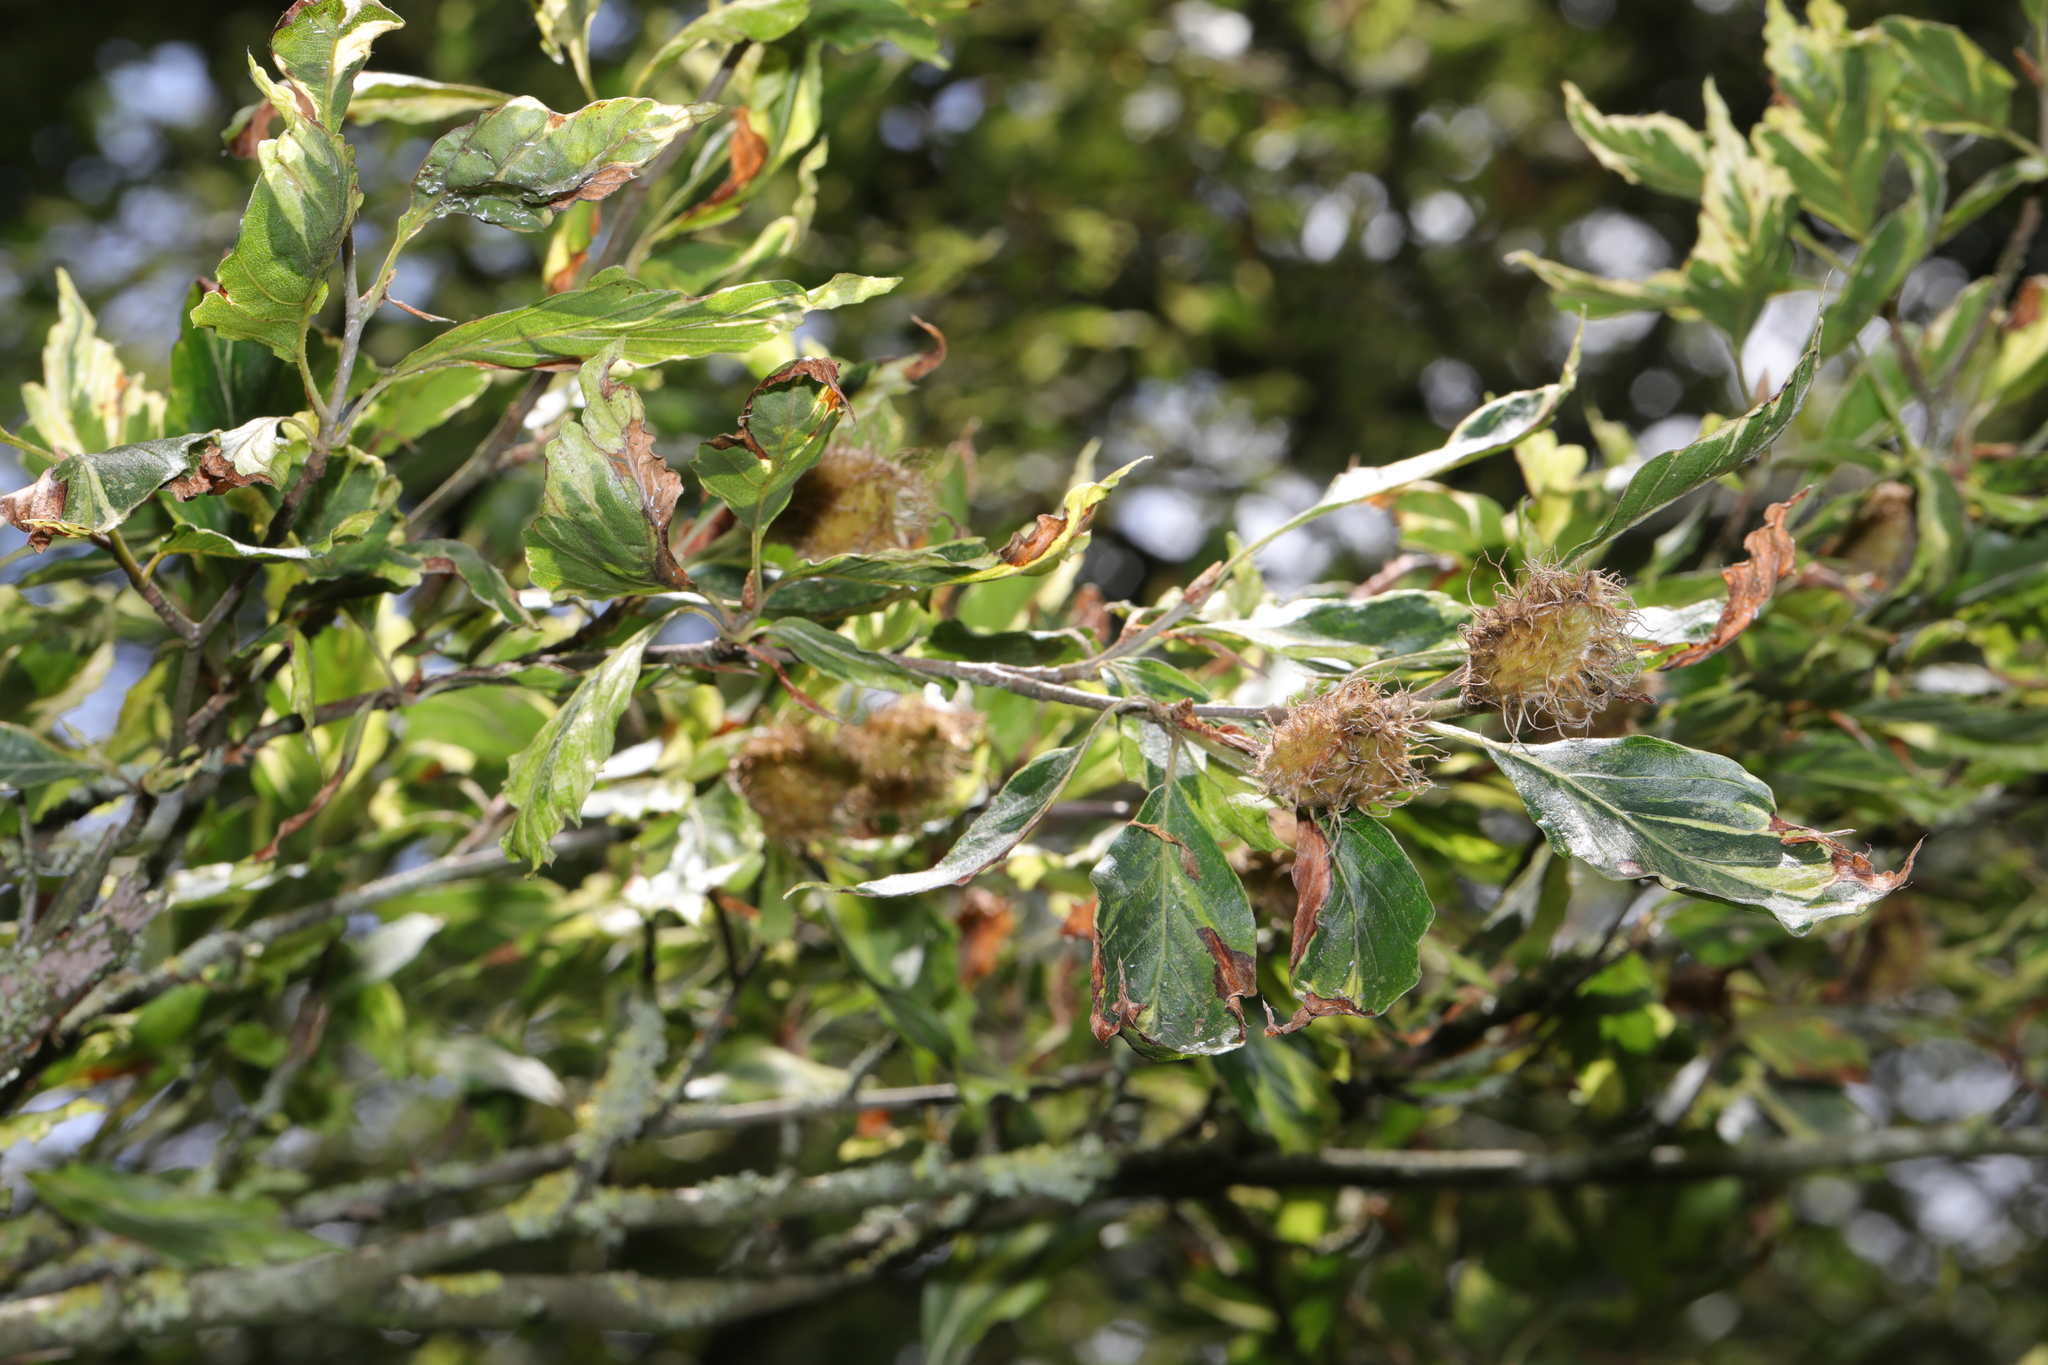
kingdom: Plantae
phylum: Tracheophyta
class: Magnoliopsida
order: Fagales
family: Fagaceae
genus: Fagus
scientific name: Fagus sylvatica
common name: Beech
